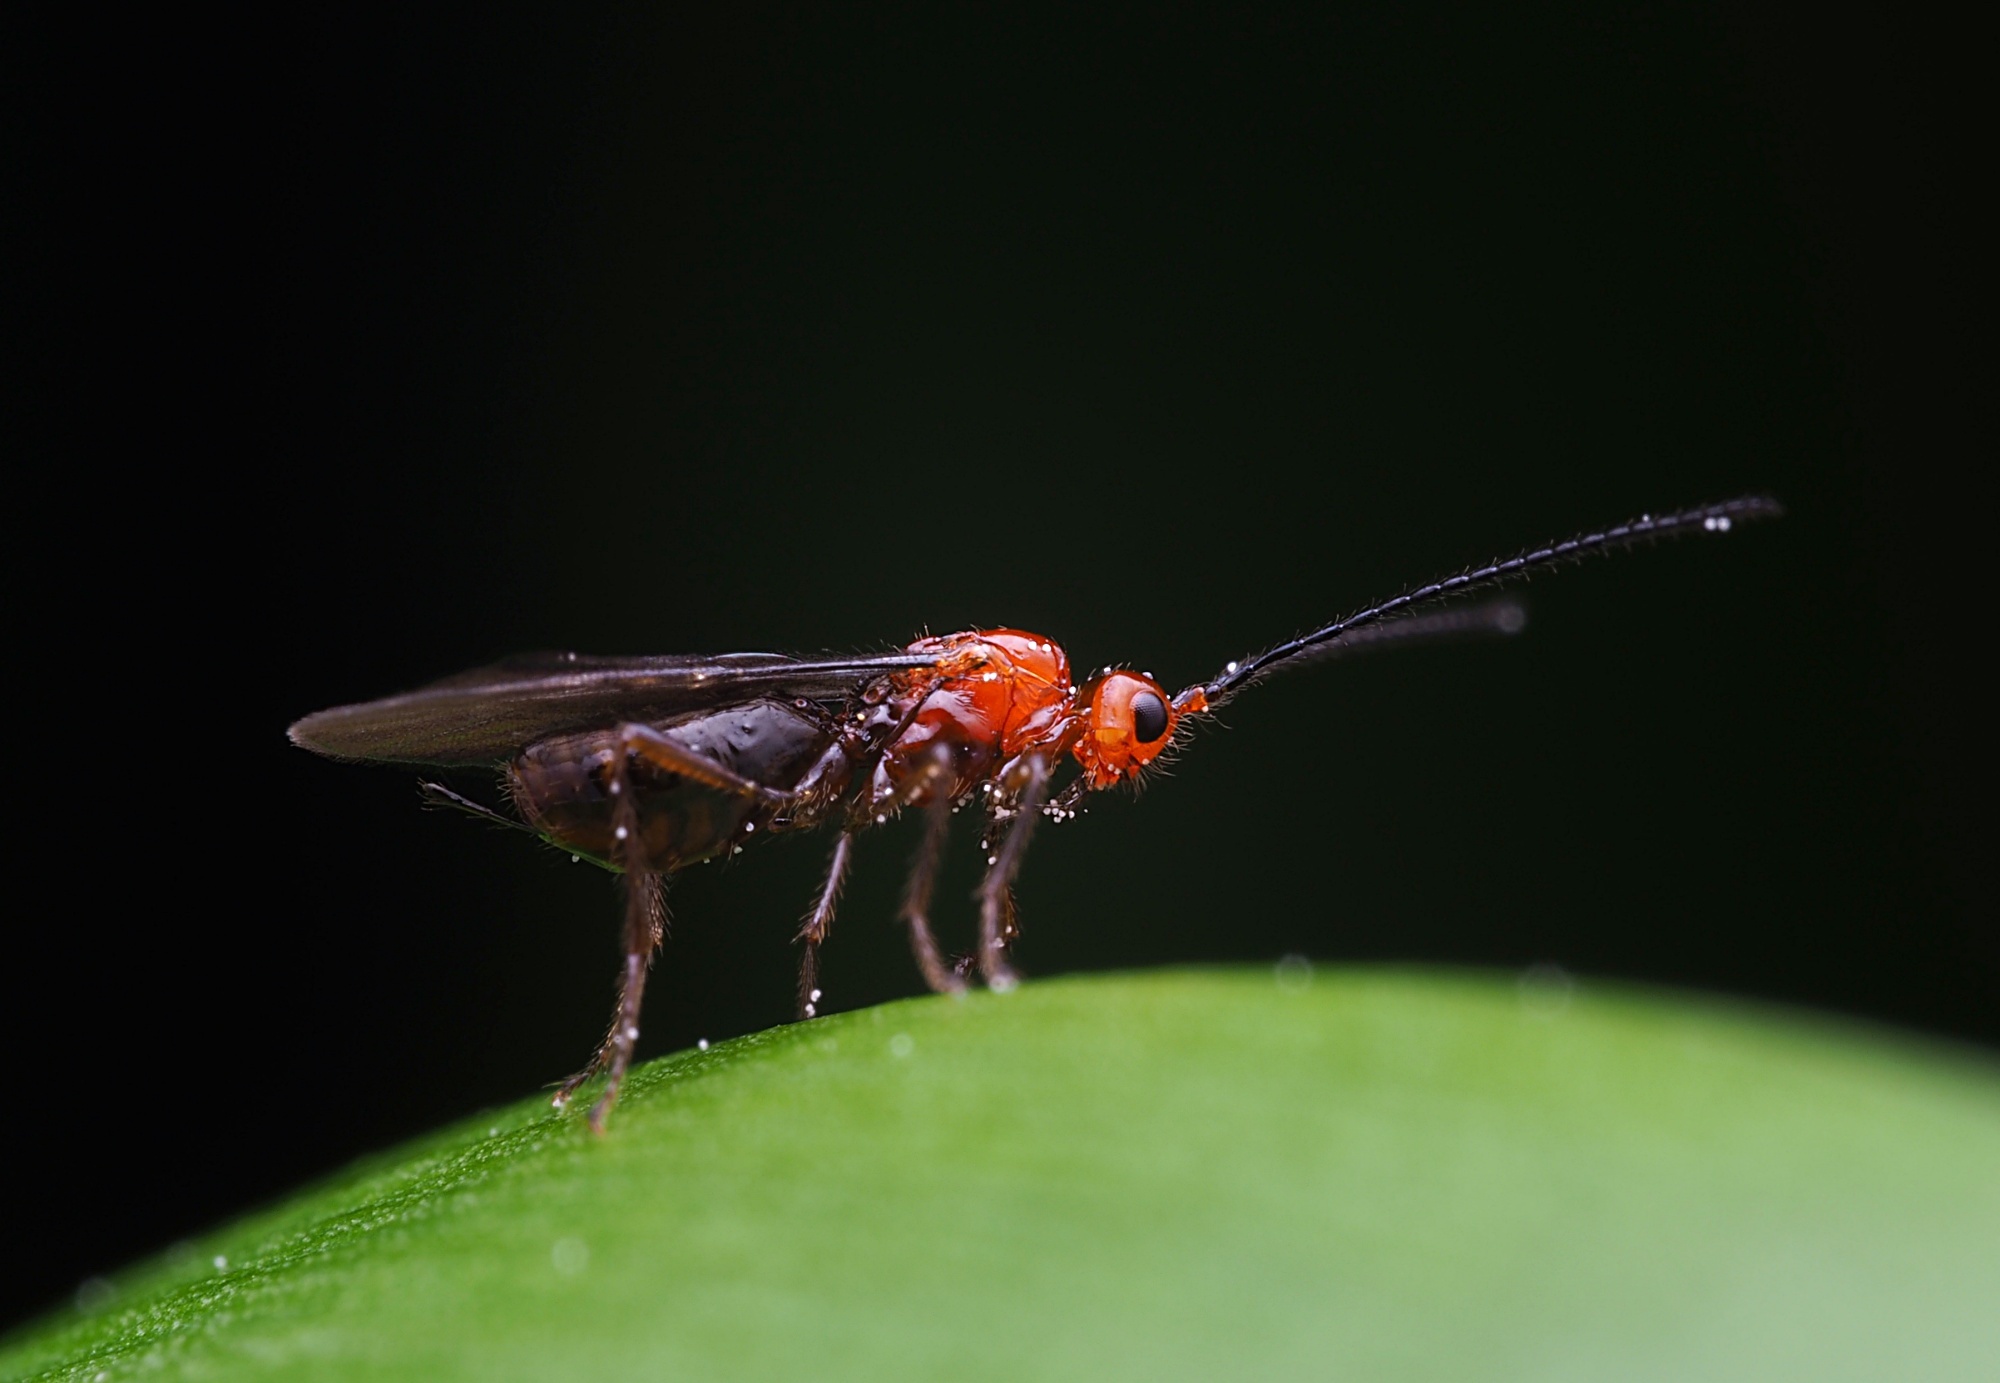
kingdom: Animalia
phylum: Arthropoda
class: Insecta
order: Hymenoptera
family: Braconidae
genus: Asobara
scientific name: Asobara antipoda
